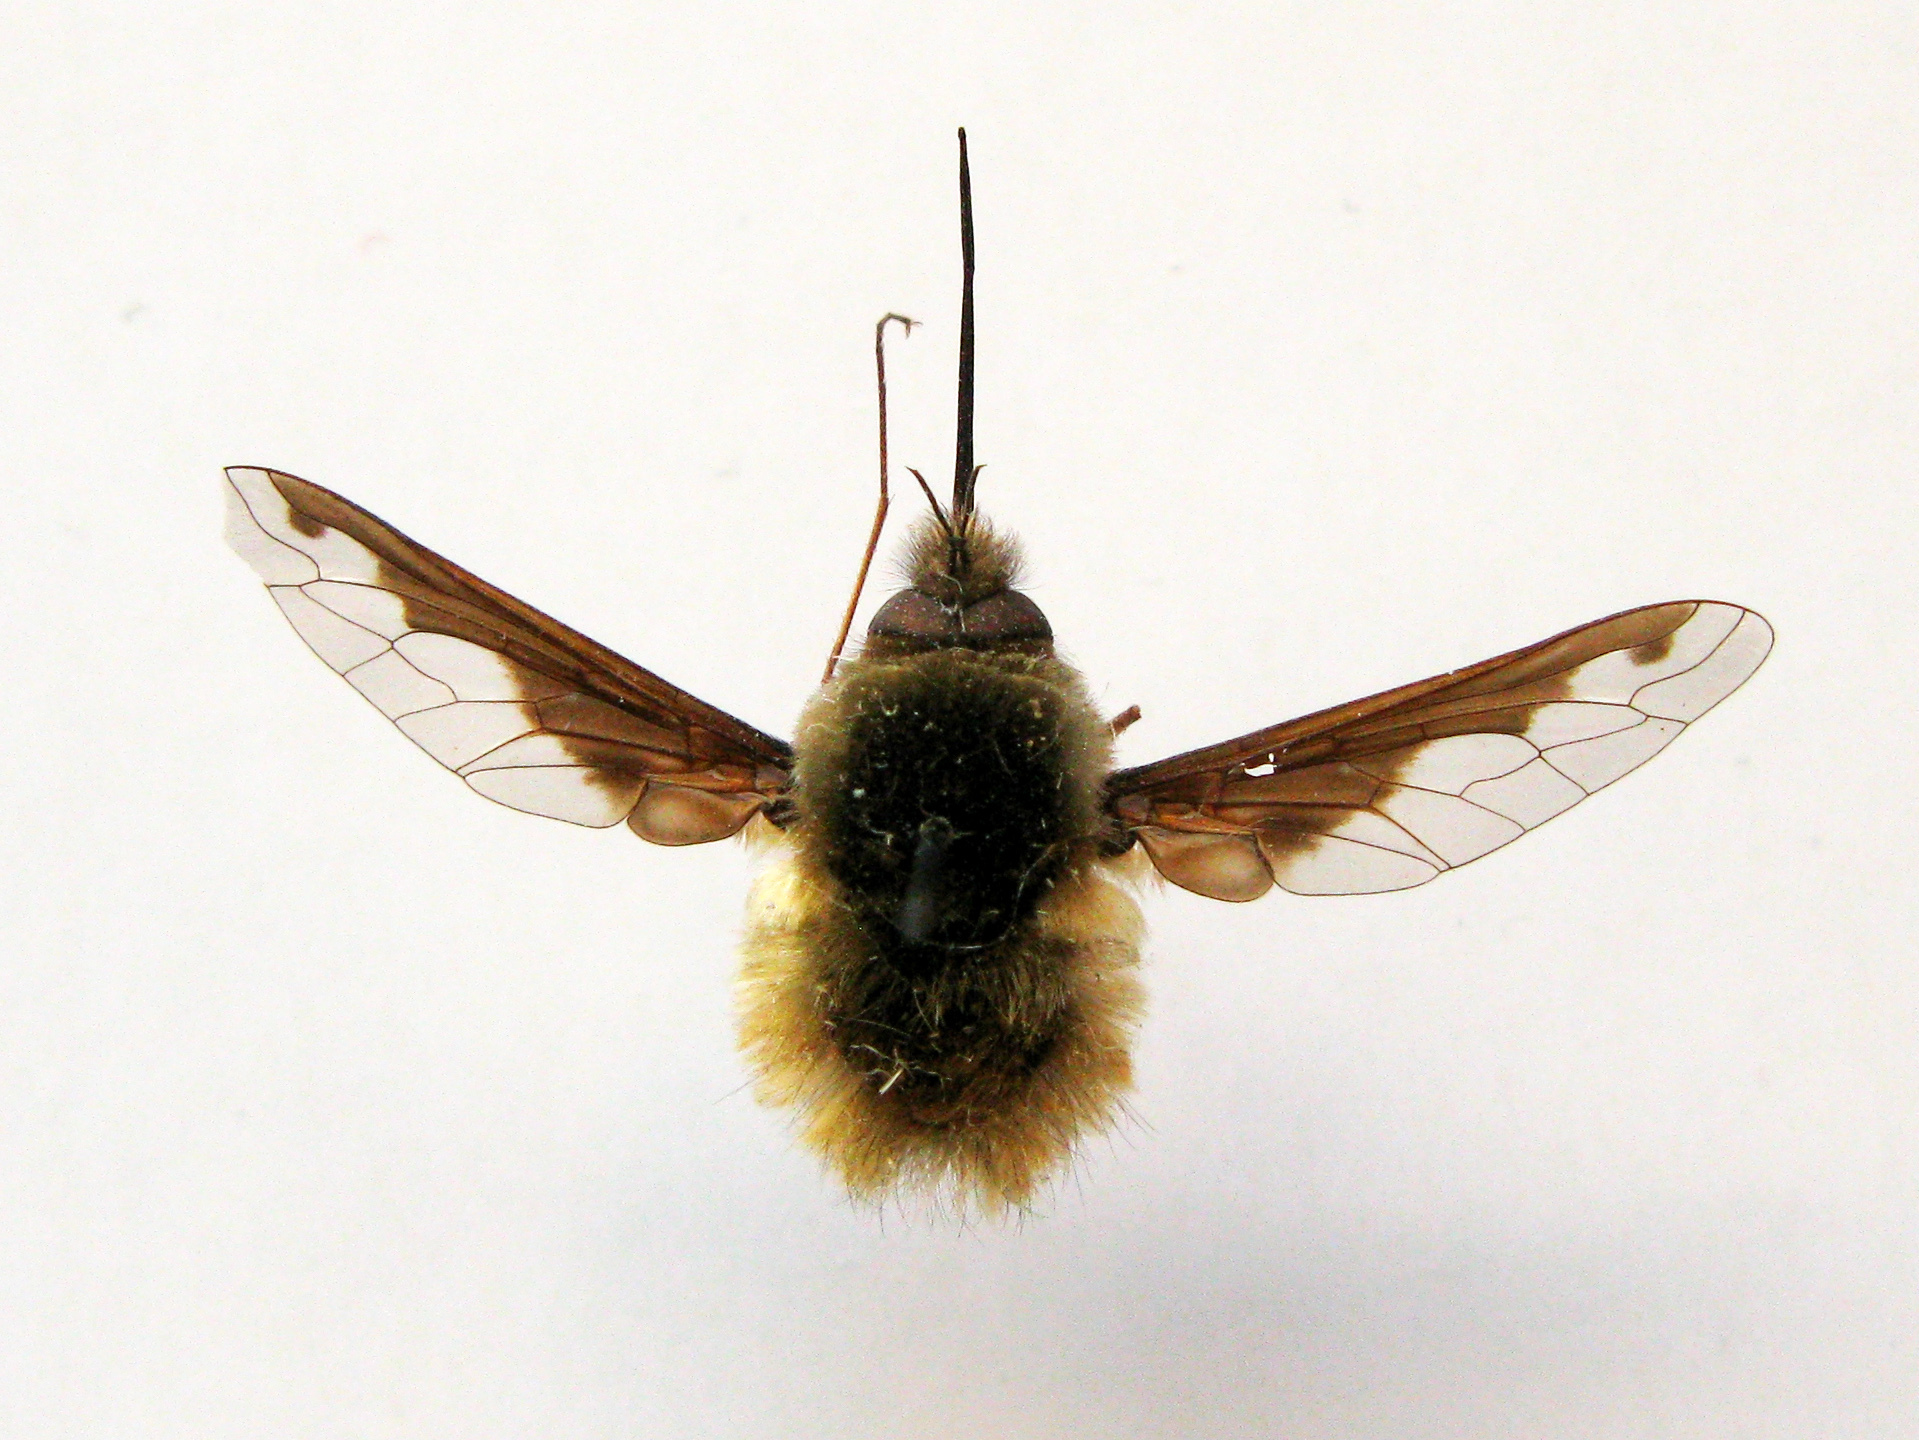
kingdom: Animalia
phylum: Arthropoda
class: Insecta
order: Diptera
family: Bombyliidae
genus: Bombylius
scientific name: Bombylius major
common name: Bee fly
